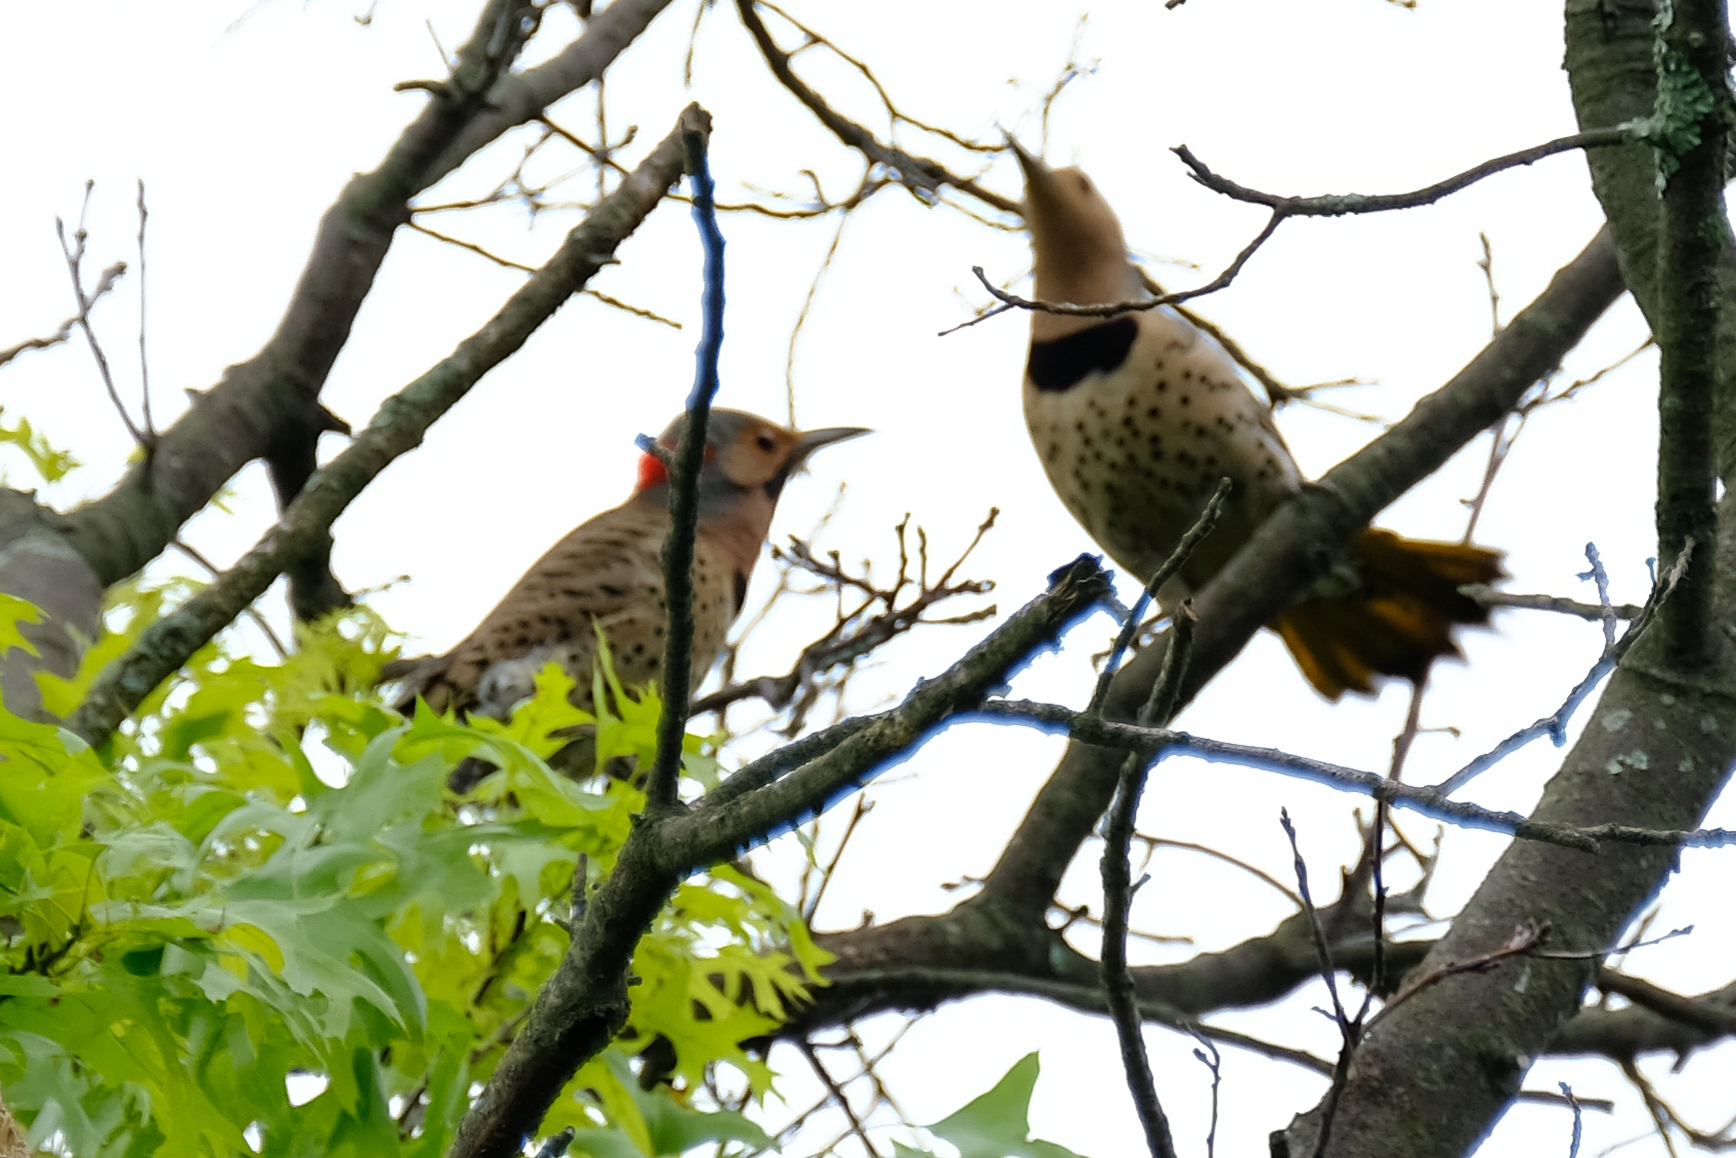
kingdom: Animalia
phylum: Chordata
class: Aves
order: Piciformes
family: Picidae
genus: Colaptes
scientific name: Colaptes auratus
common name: Northern flicker
